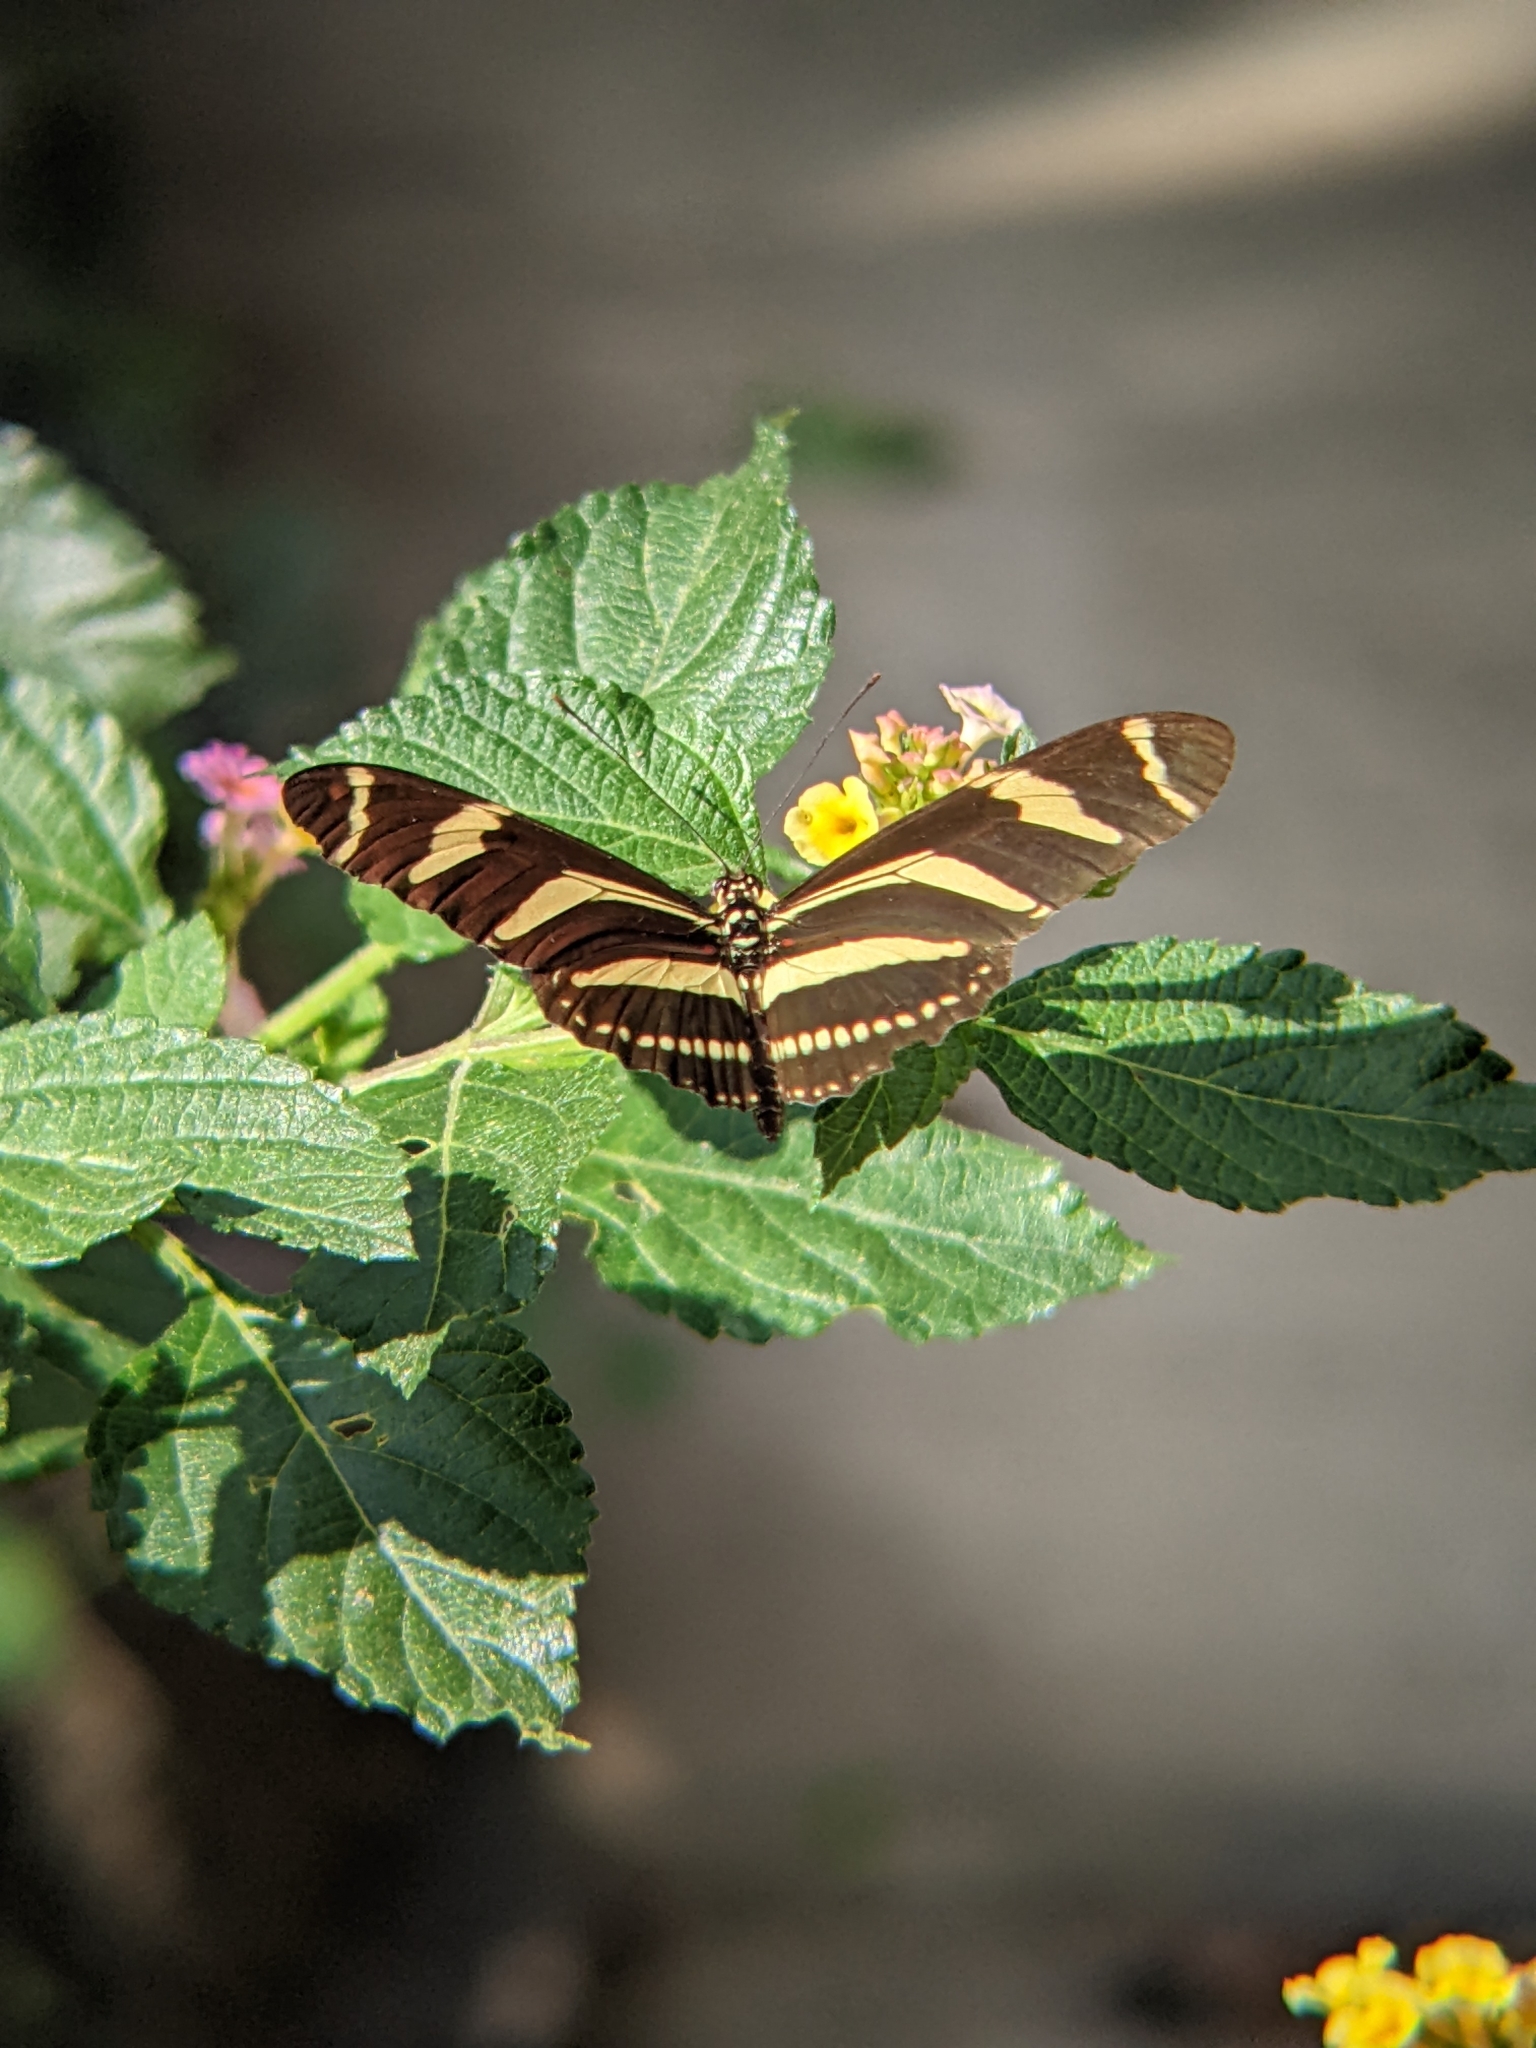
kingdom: Animalia
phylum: Arthropoda
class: Insecta
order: Lepidoptera
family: Nymphalidae
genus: Heliconius
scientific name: Heliconius charithonia
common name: Zebra long wing
